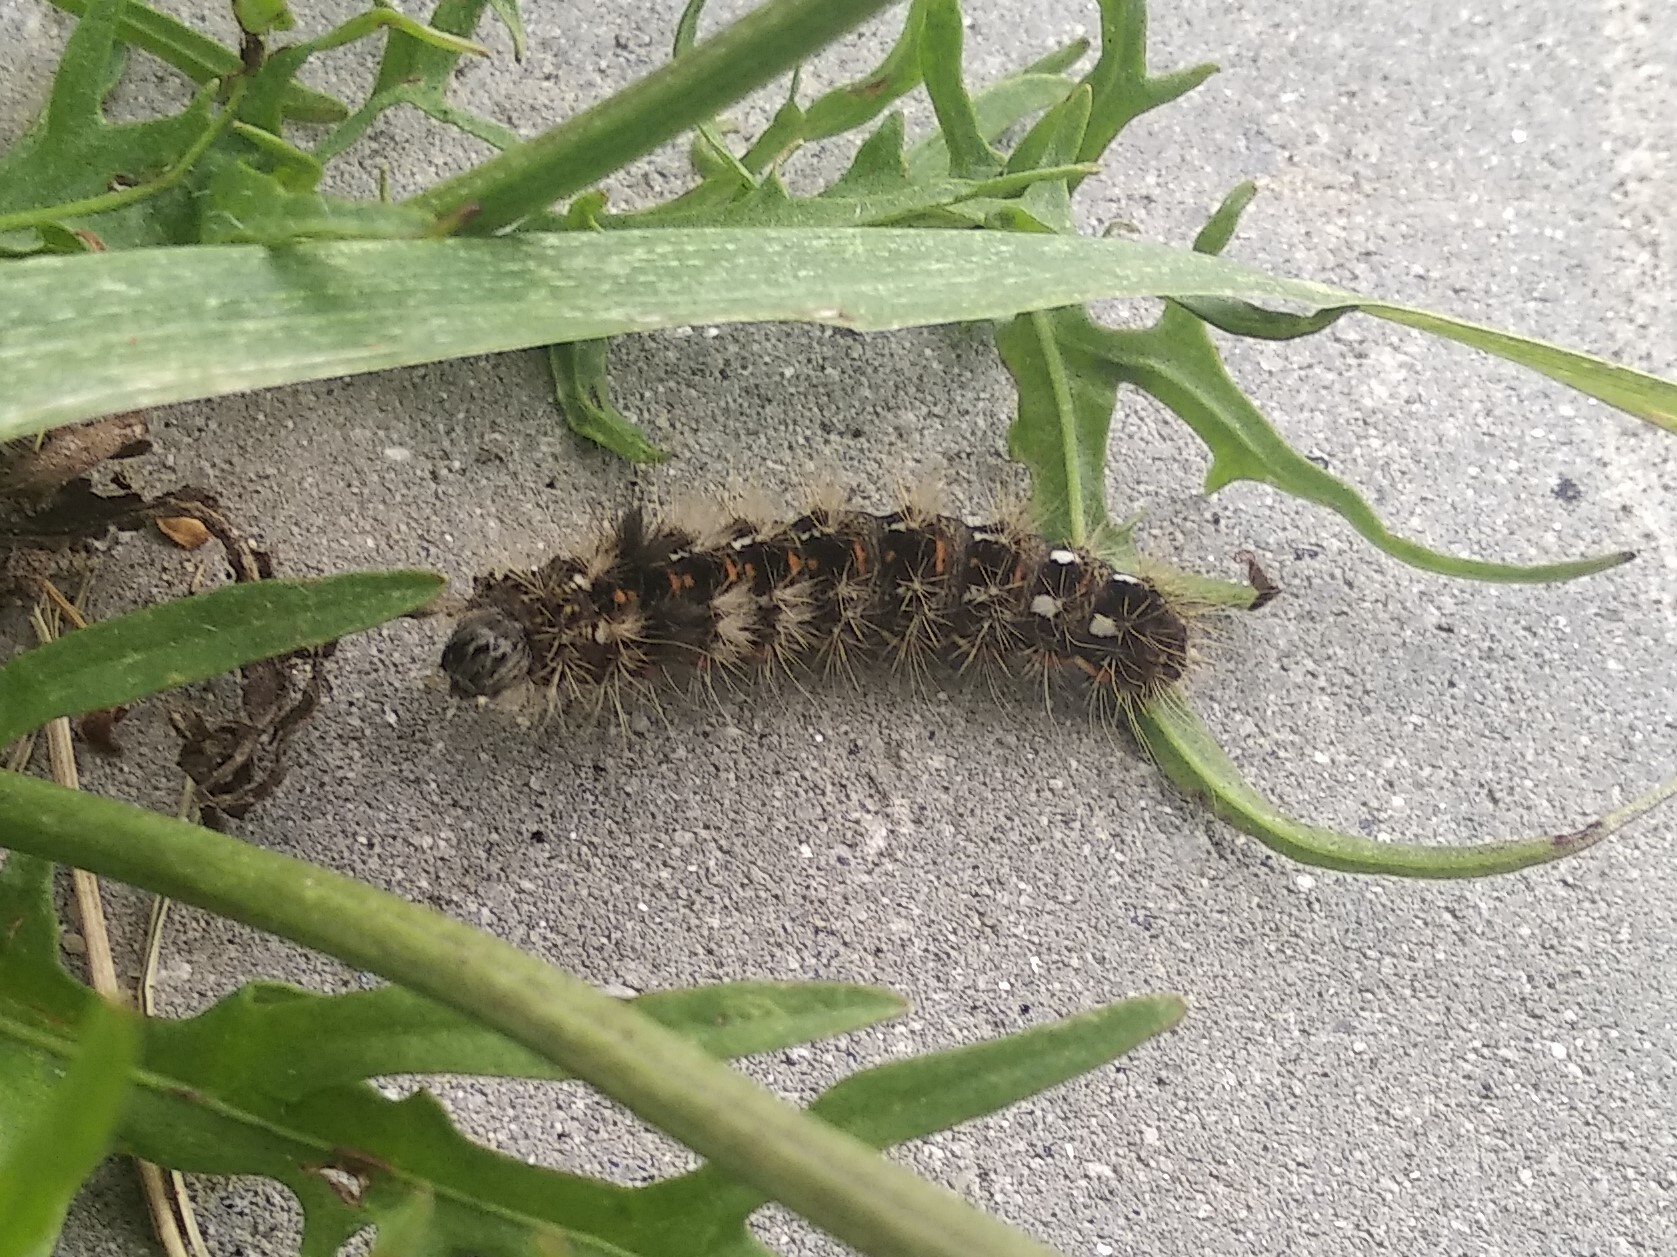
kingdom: Animalia
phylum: Arthropoda
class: Insecta
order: Lepidoptera
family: Noctuidae
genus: Acronicta
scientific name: Acronicta rumicis
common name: Knot grass
